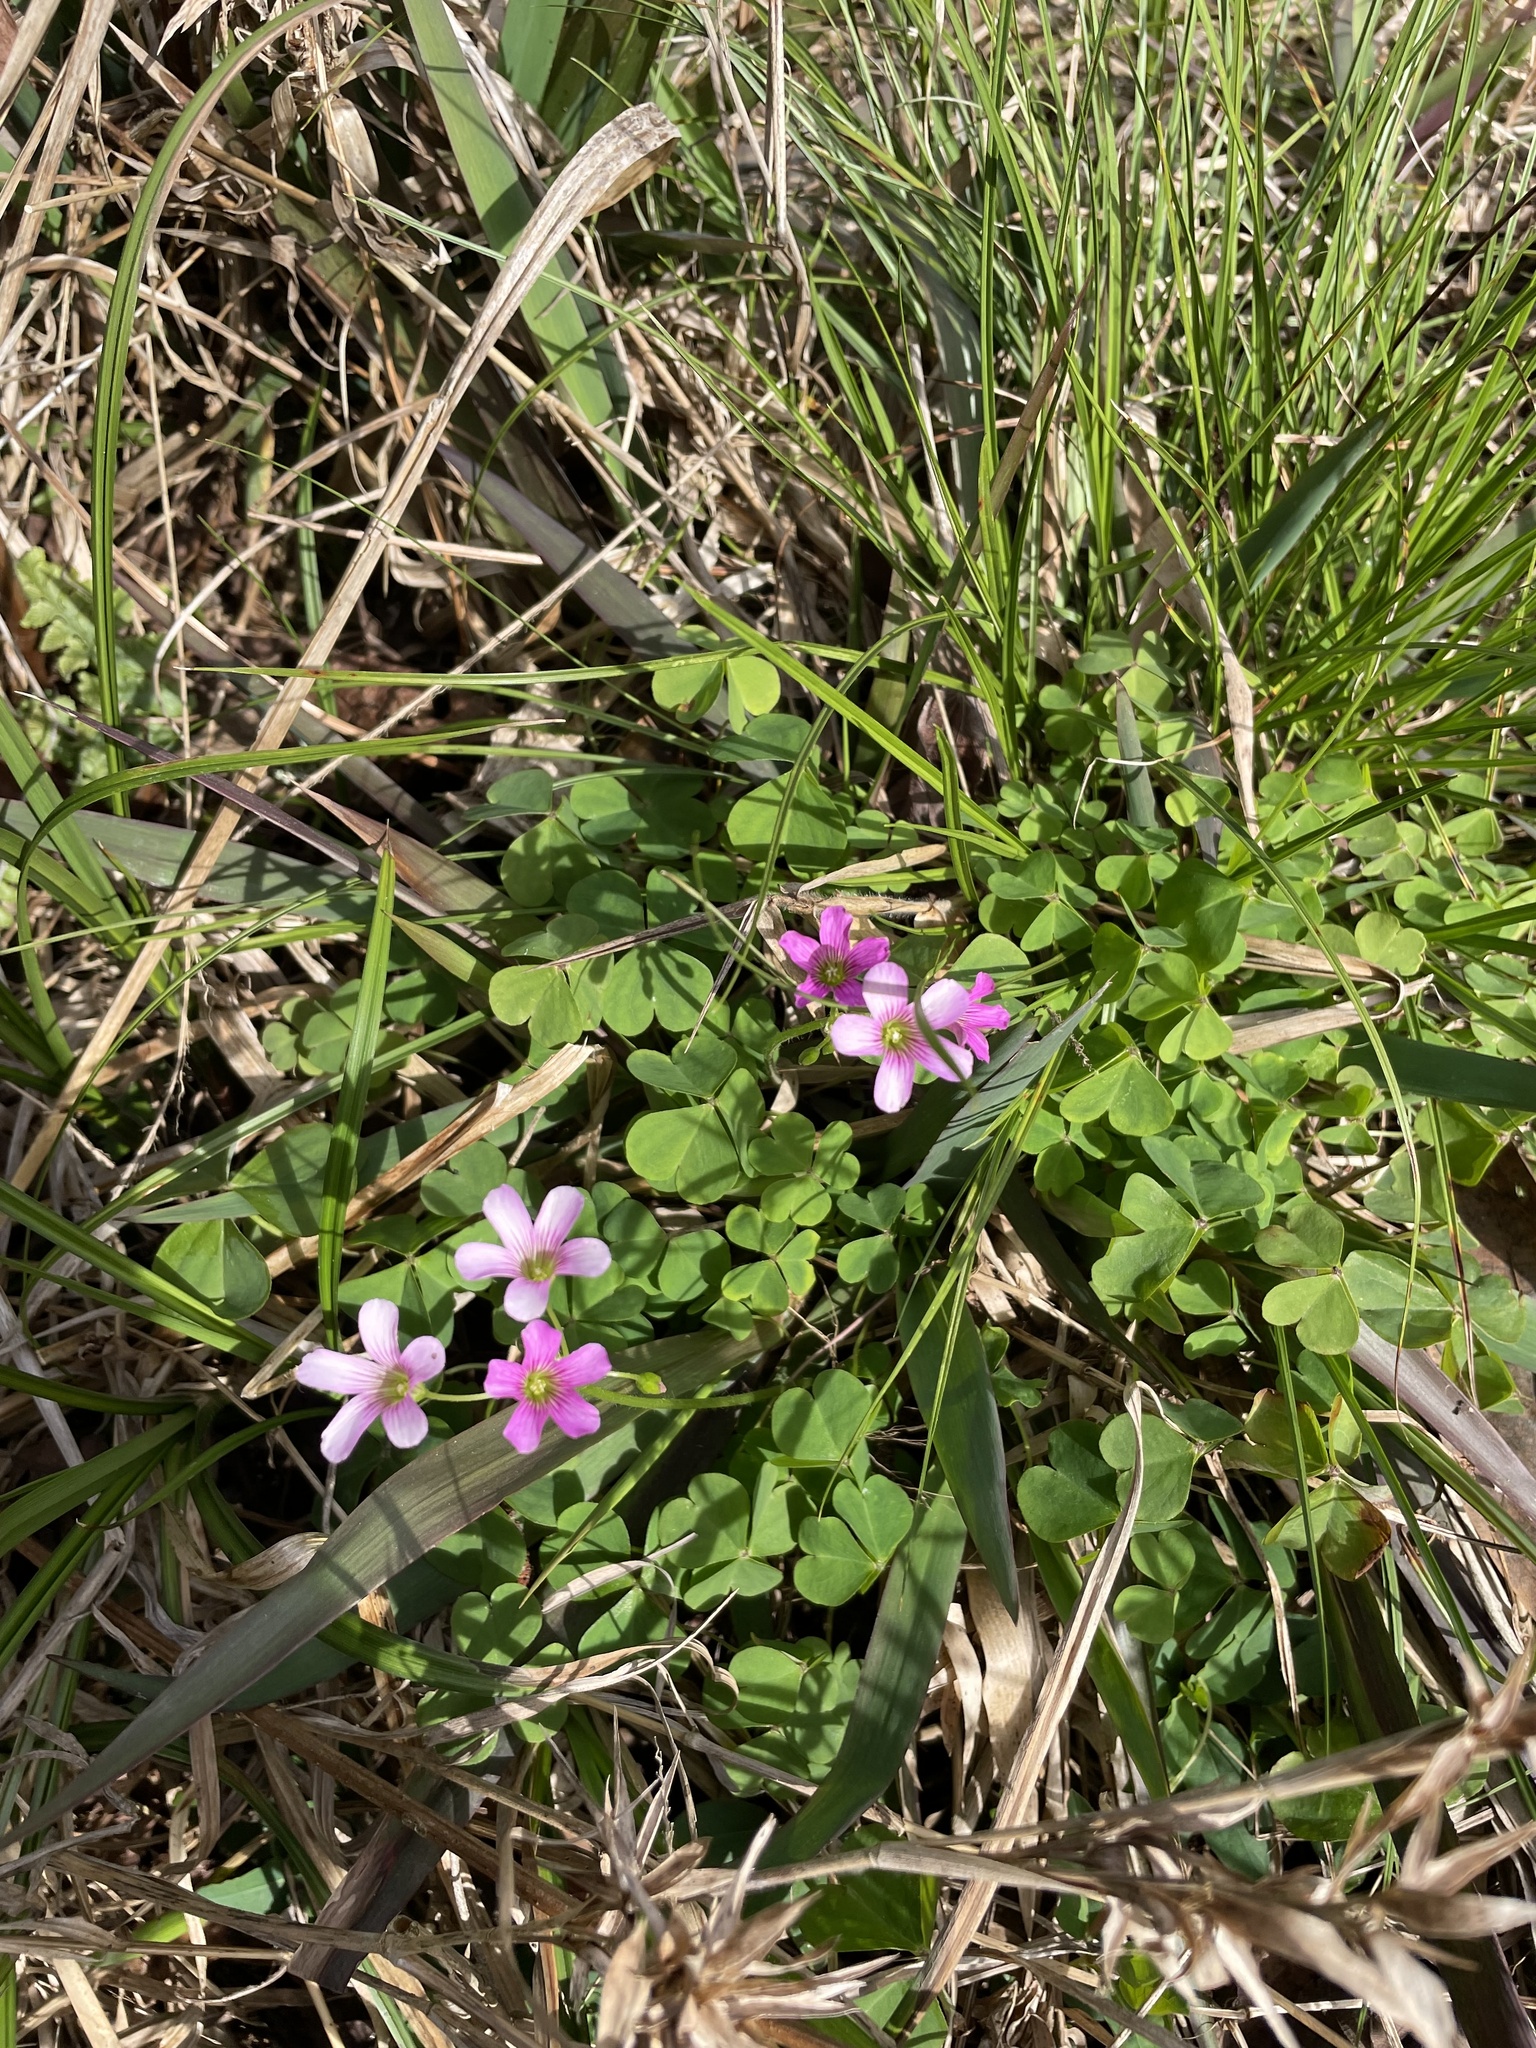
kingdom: Plantae
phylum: Tracheophyta
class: Magnoliopsida
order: Oxalidales
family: Oxalidaceae
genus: Oxalis
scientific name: Oxalis debilis
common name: Large-flowered pink-sorrel
